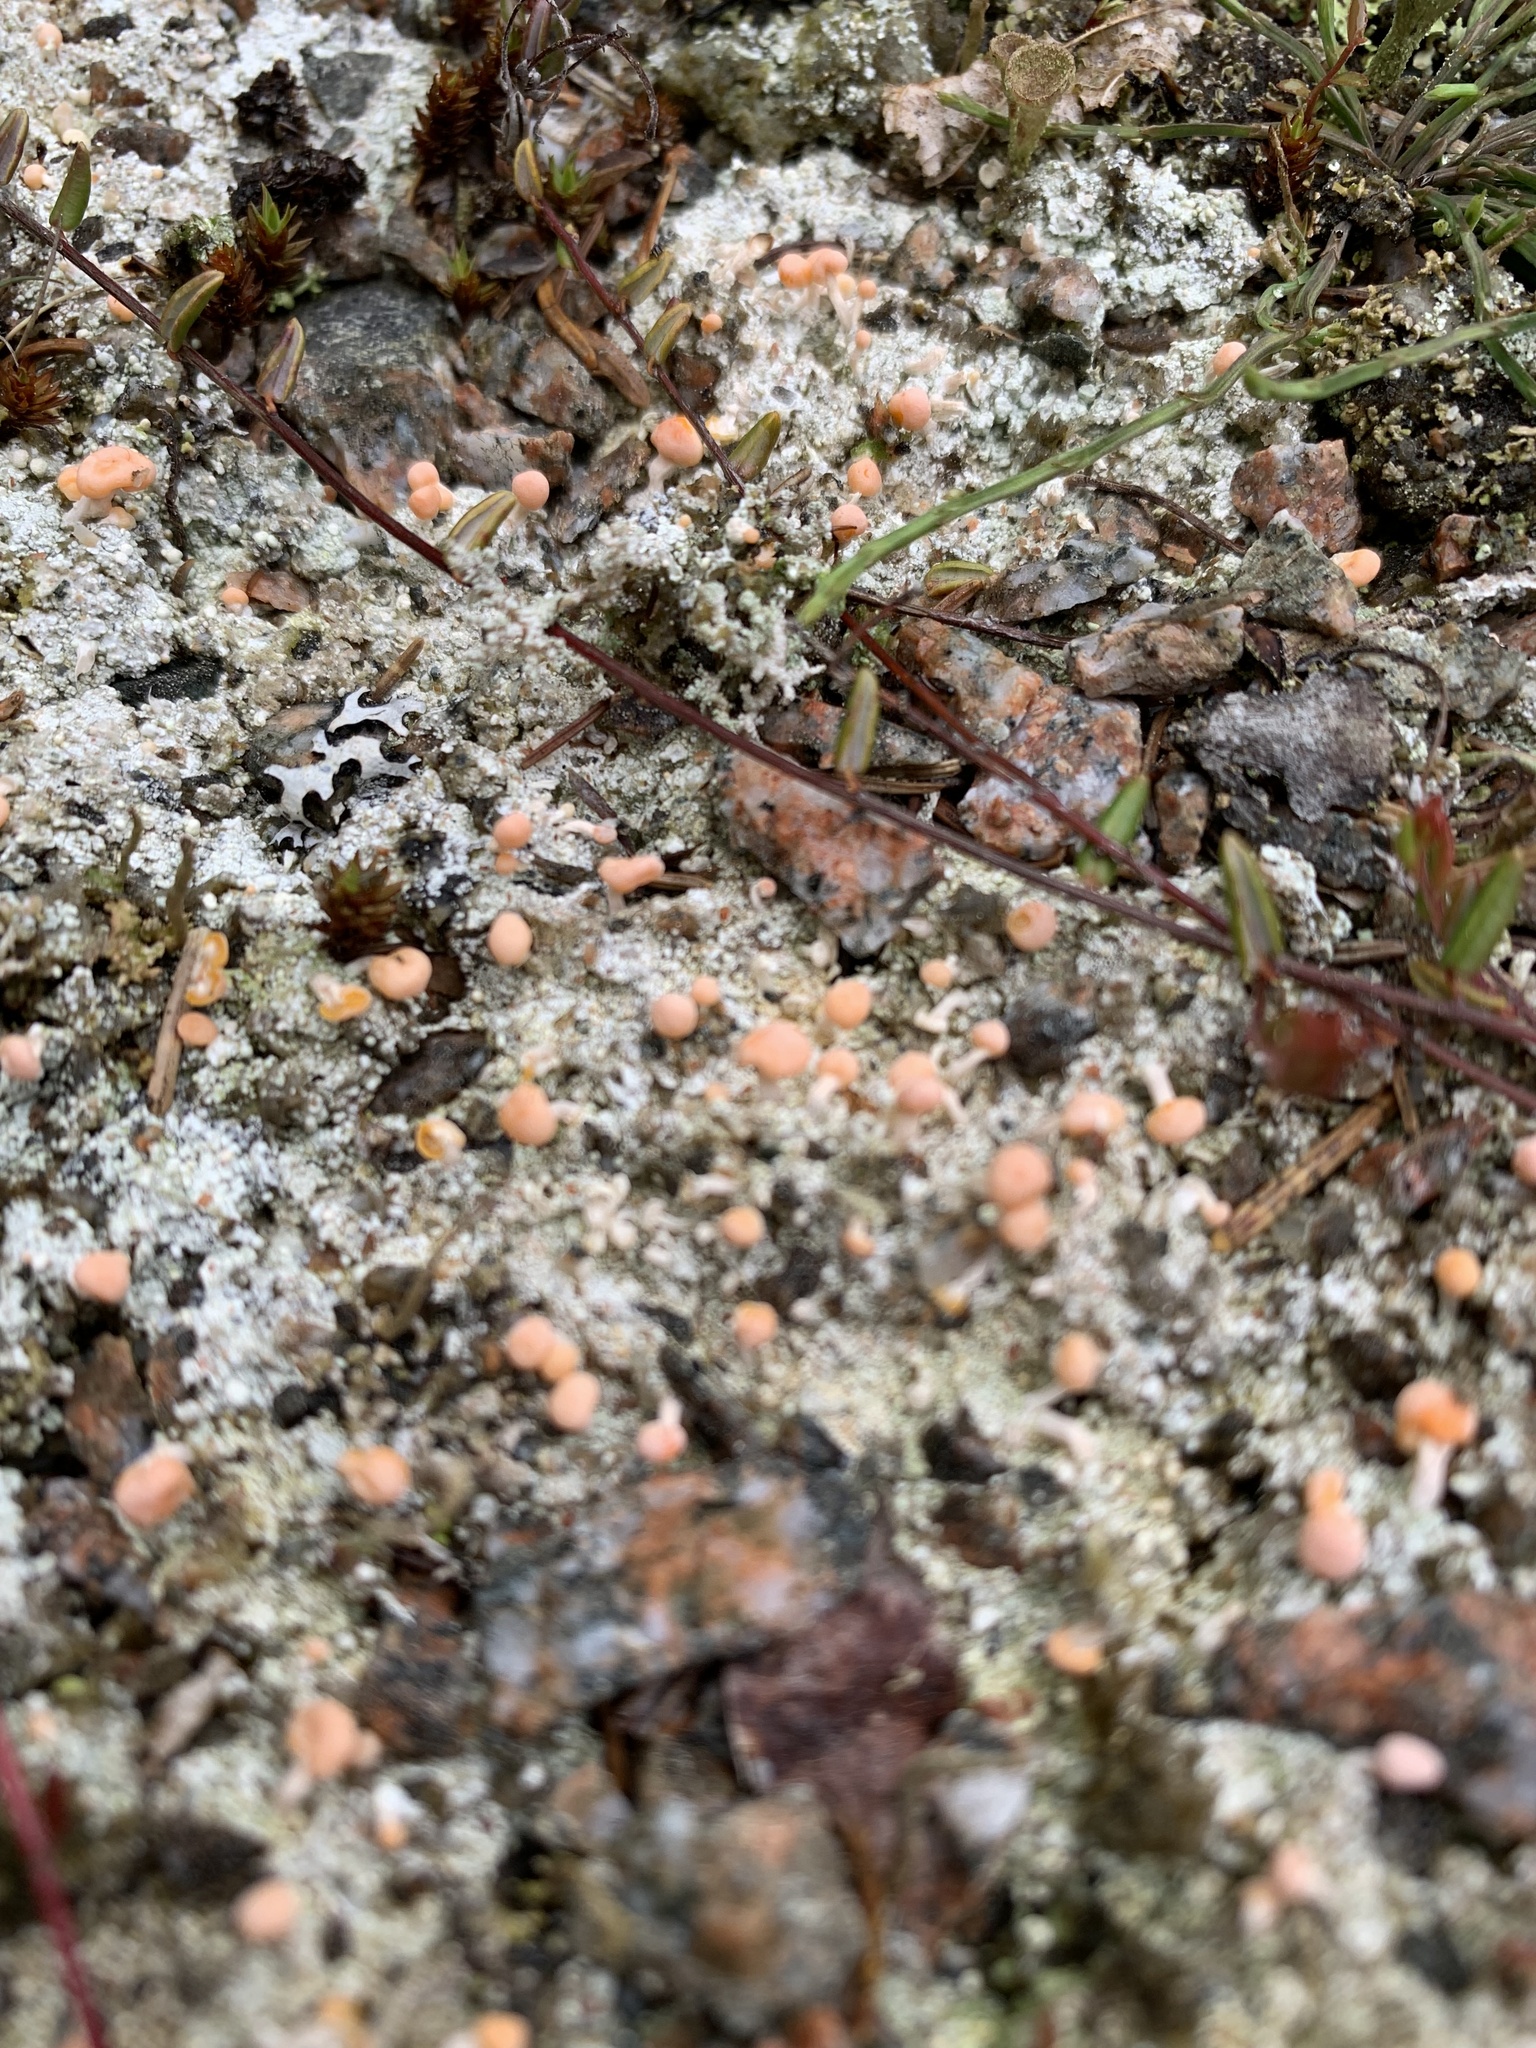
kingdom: Fungi
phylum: Ascomycota
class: Lecanoromycetes
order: Pertusariales
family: Icmadophilaceae
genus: Dibaeis
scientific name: Dibaeis baeomyces
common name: Pink earth lichen
